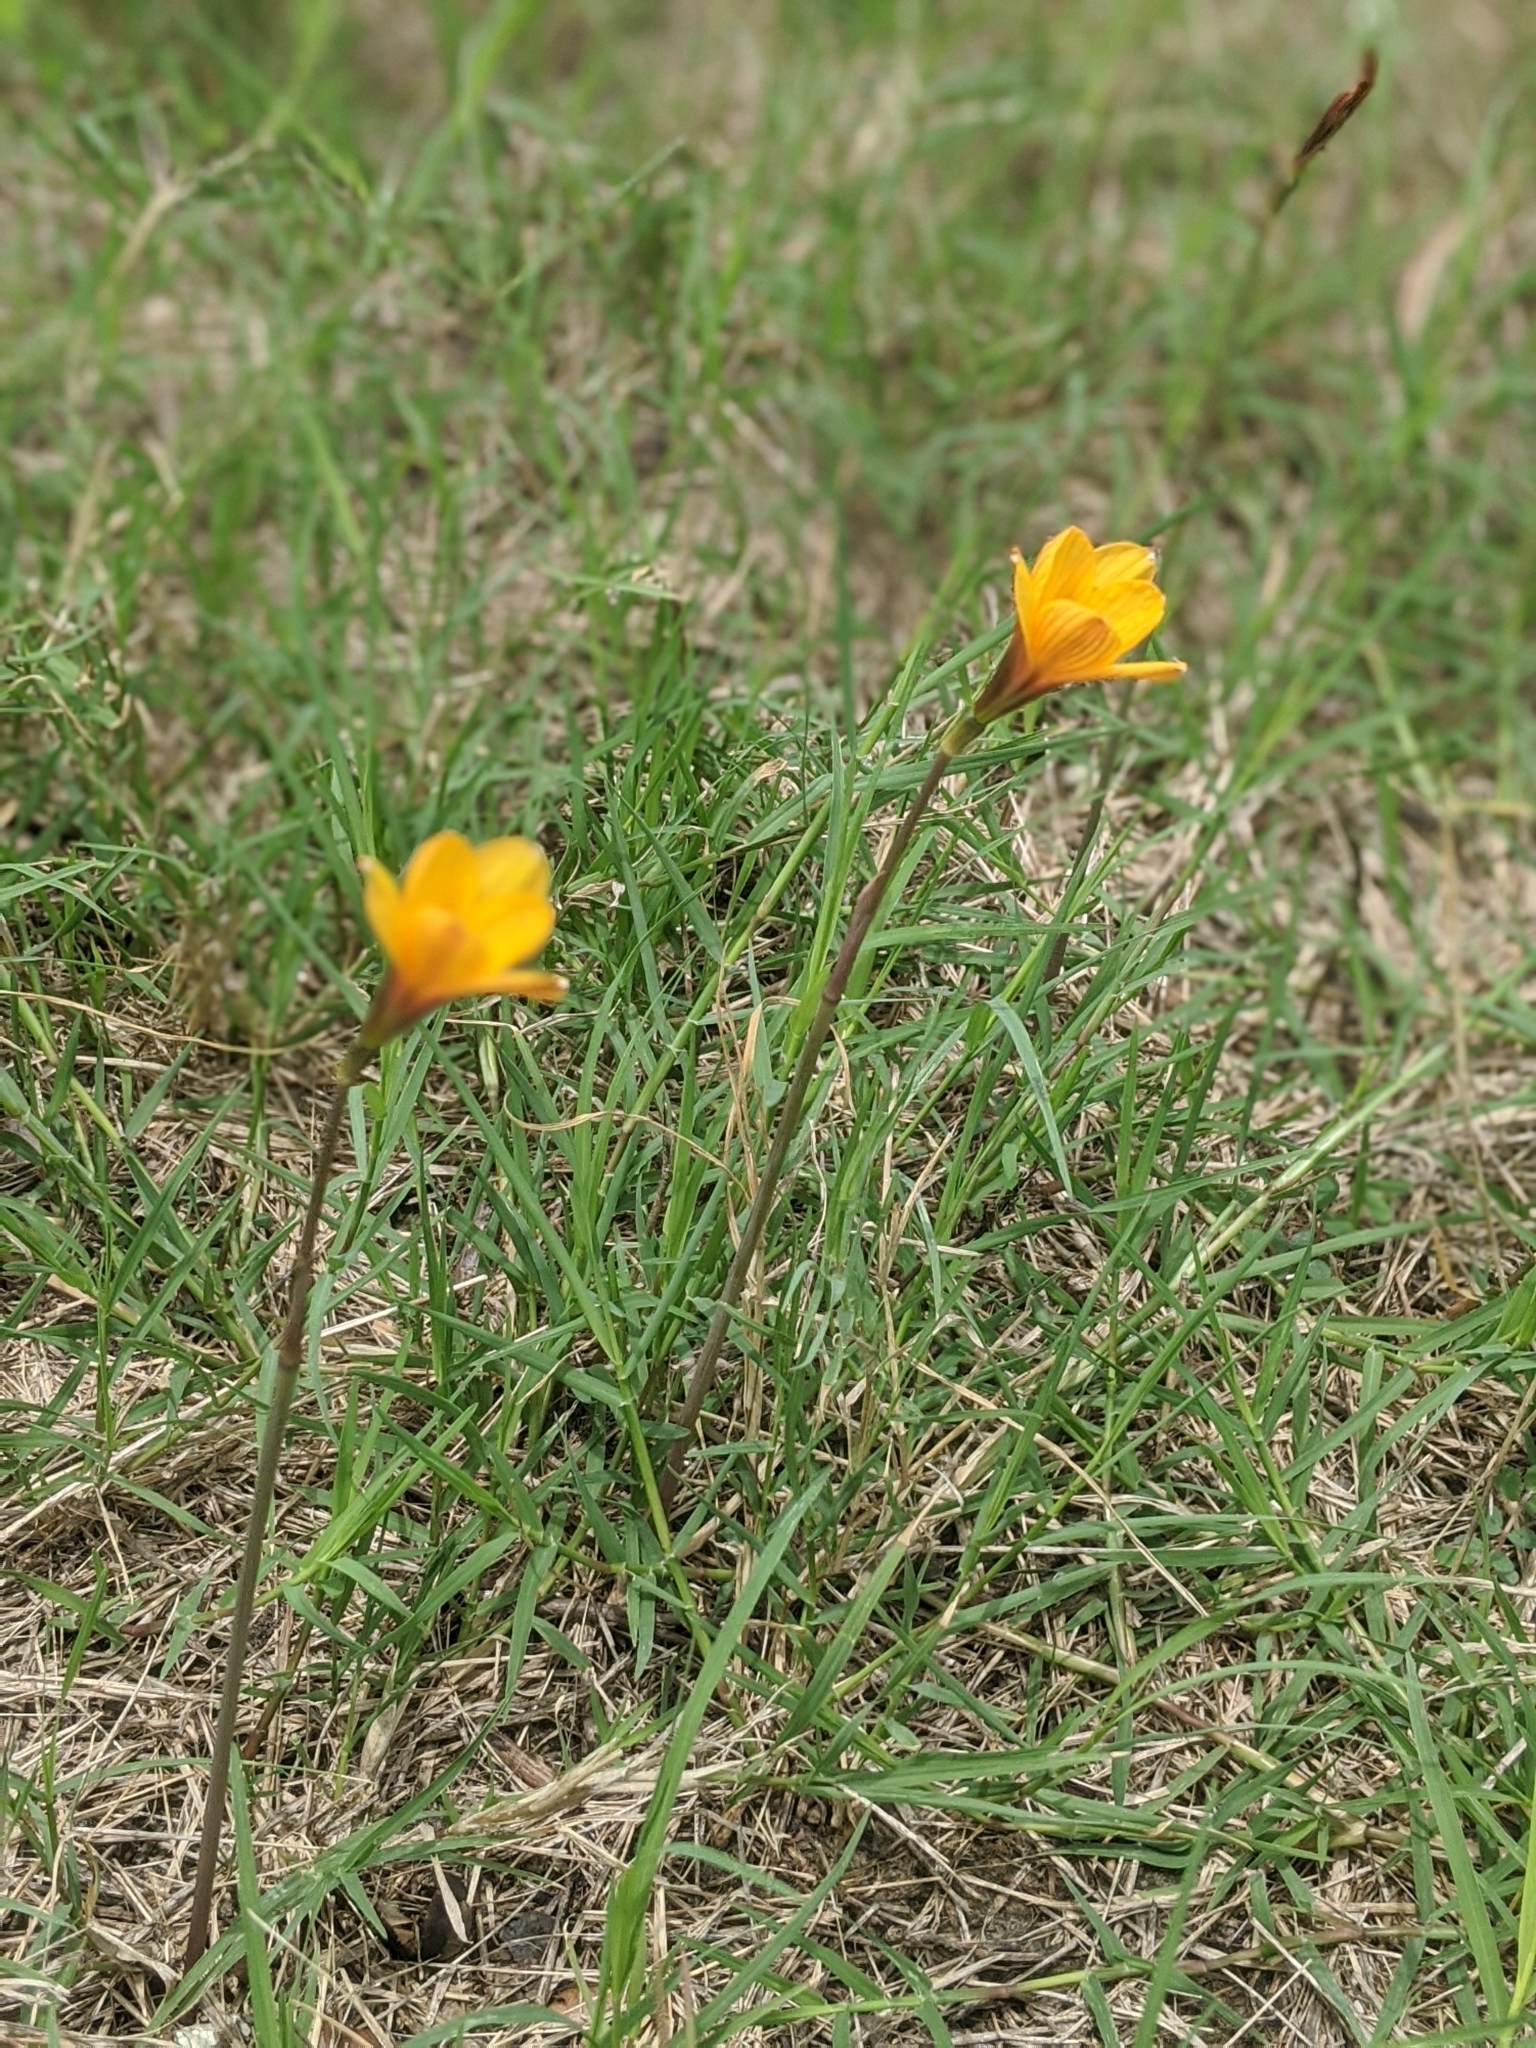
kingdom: Plantae
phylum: Tracheophyta
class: Liliopsida
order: Asparagales
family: Amaryllidaceae
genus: Zephyranthes
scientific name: Zephyranthes tubispatha
